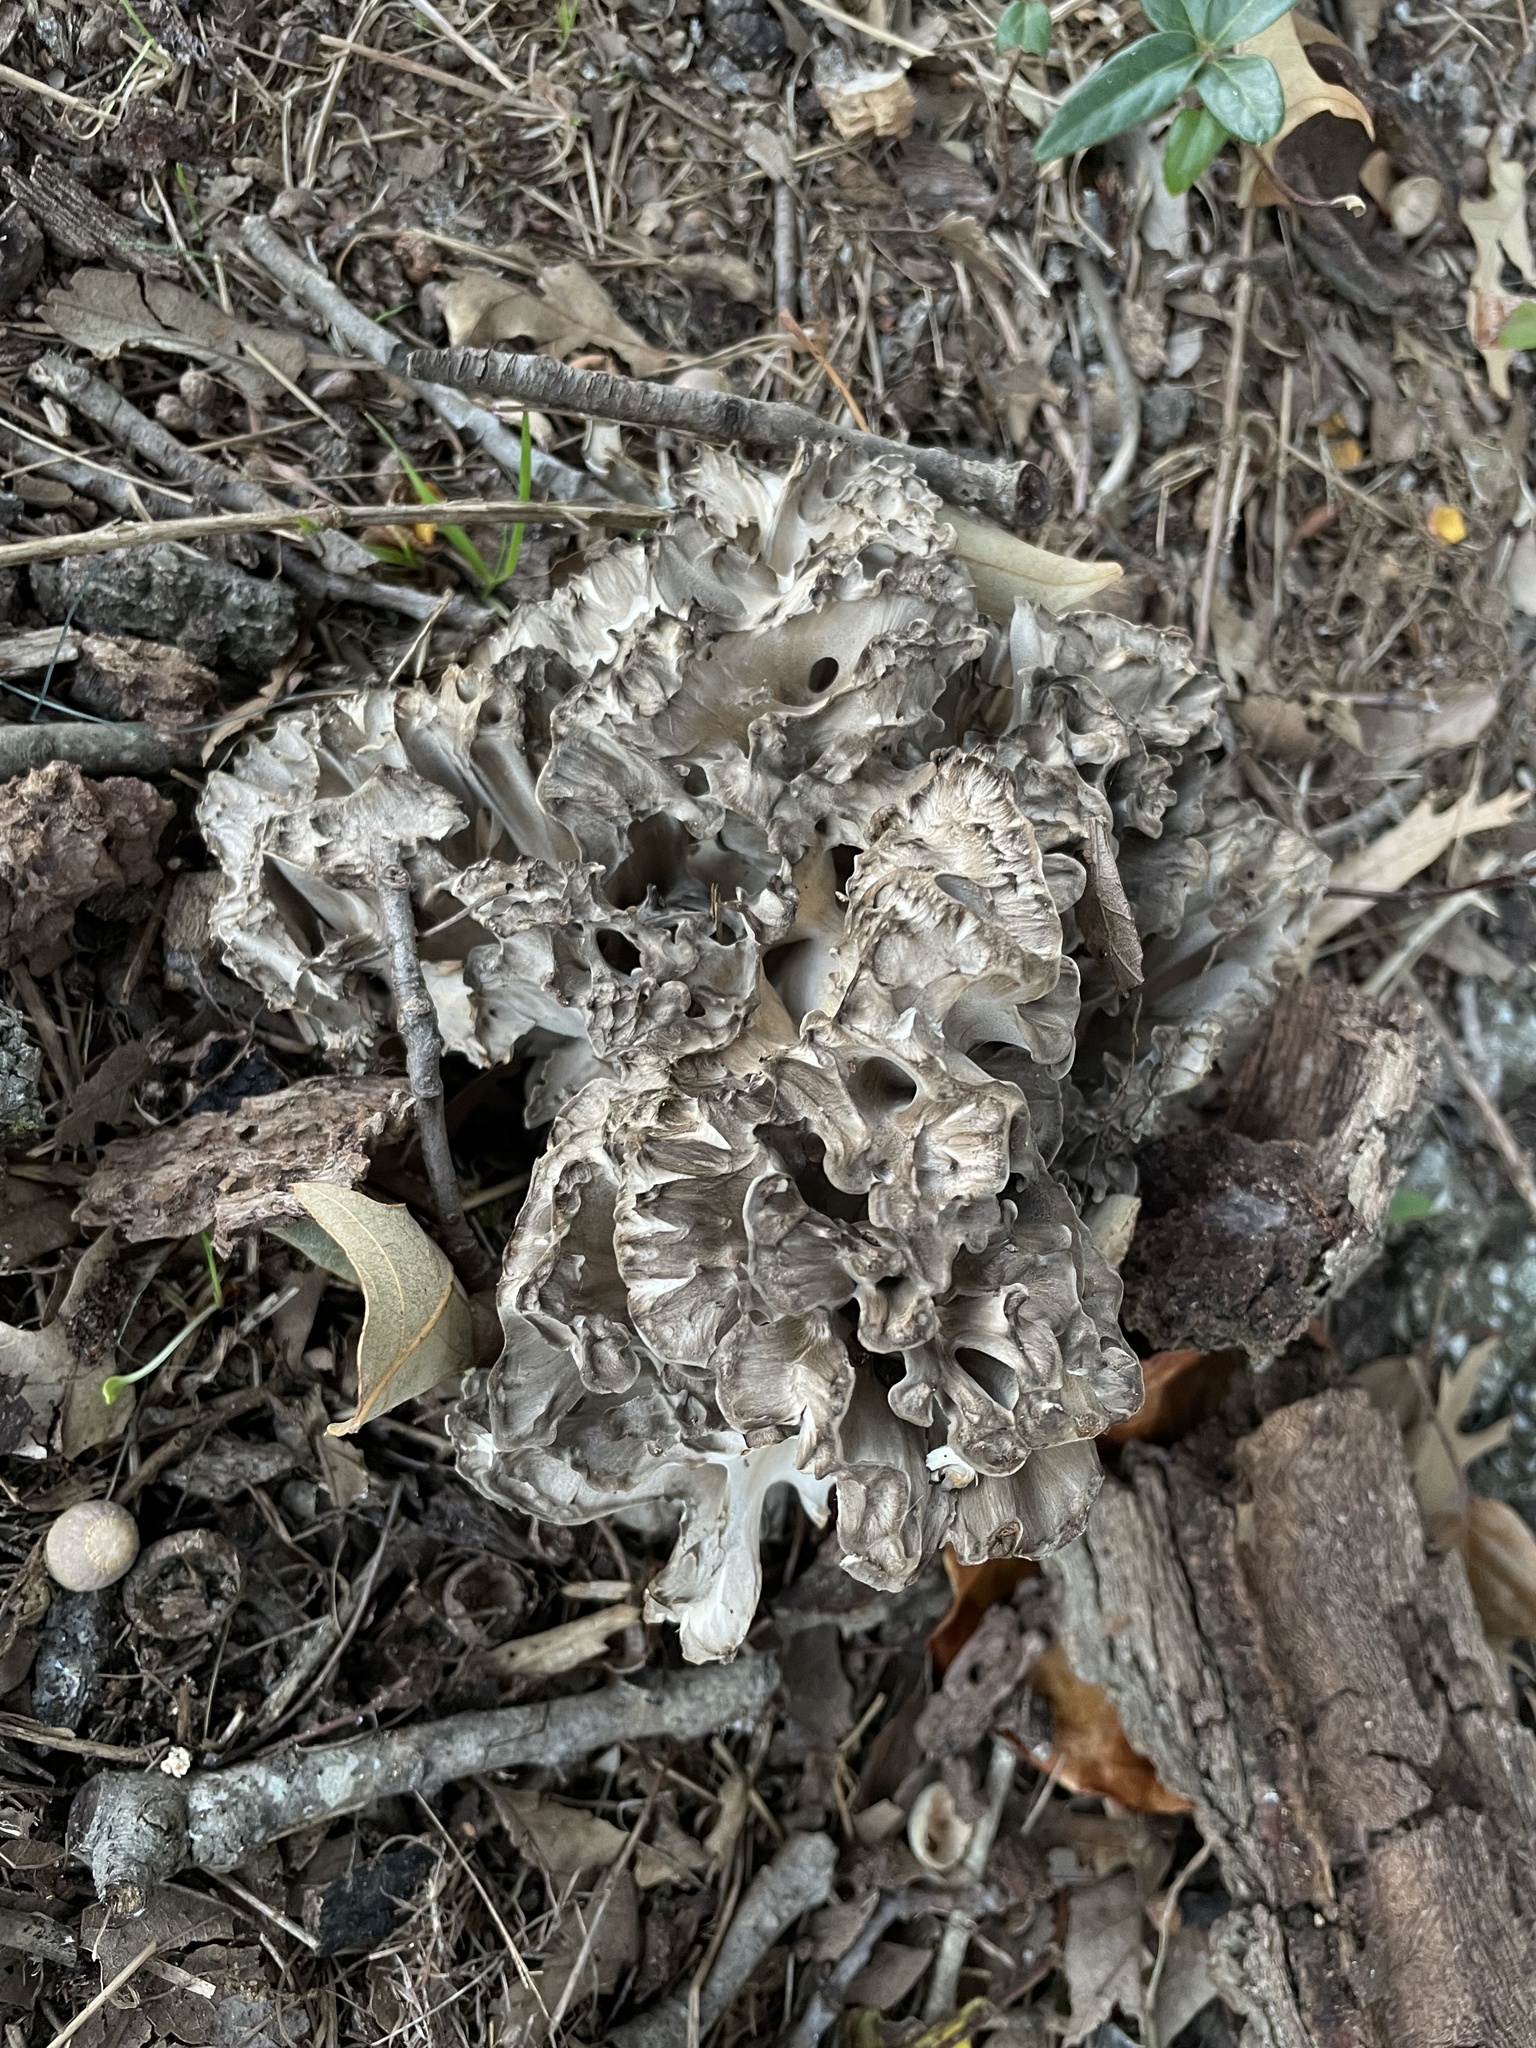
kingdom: Fungi
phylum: Basidiomycota
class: Agaricomycetes
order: Polyporales
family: Grifolaceae
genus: Grifola
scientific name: Grifola frondosa
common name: Hen of the woods
